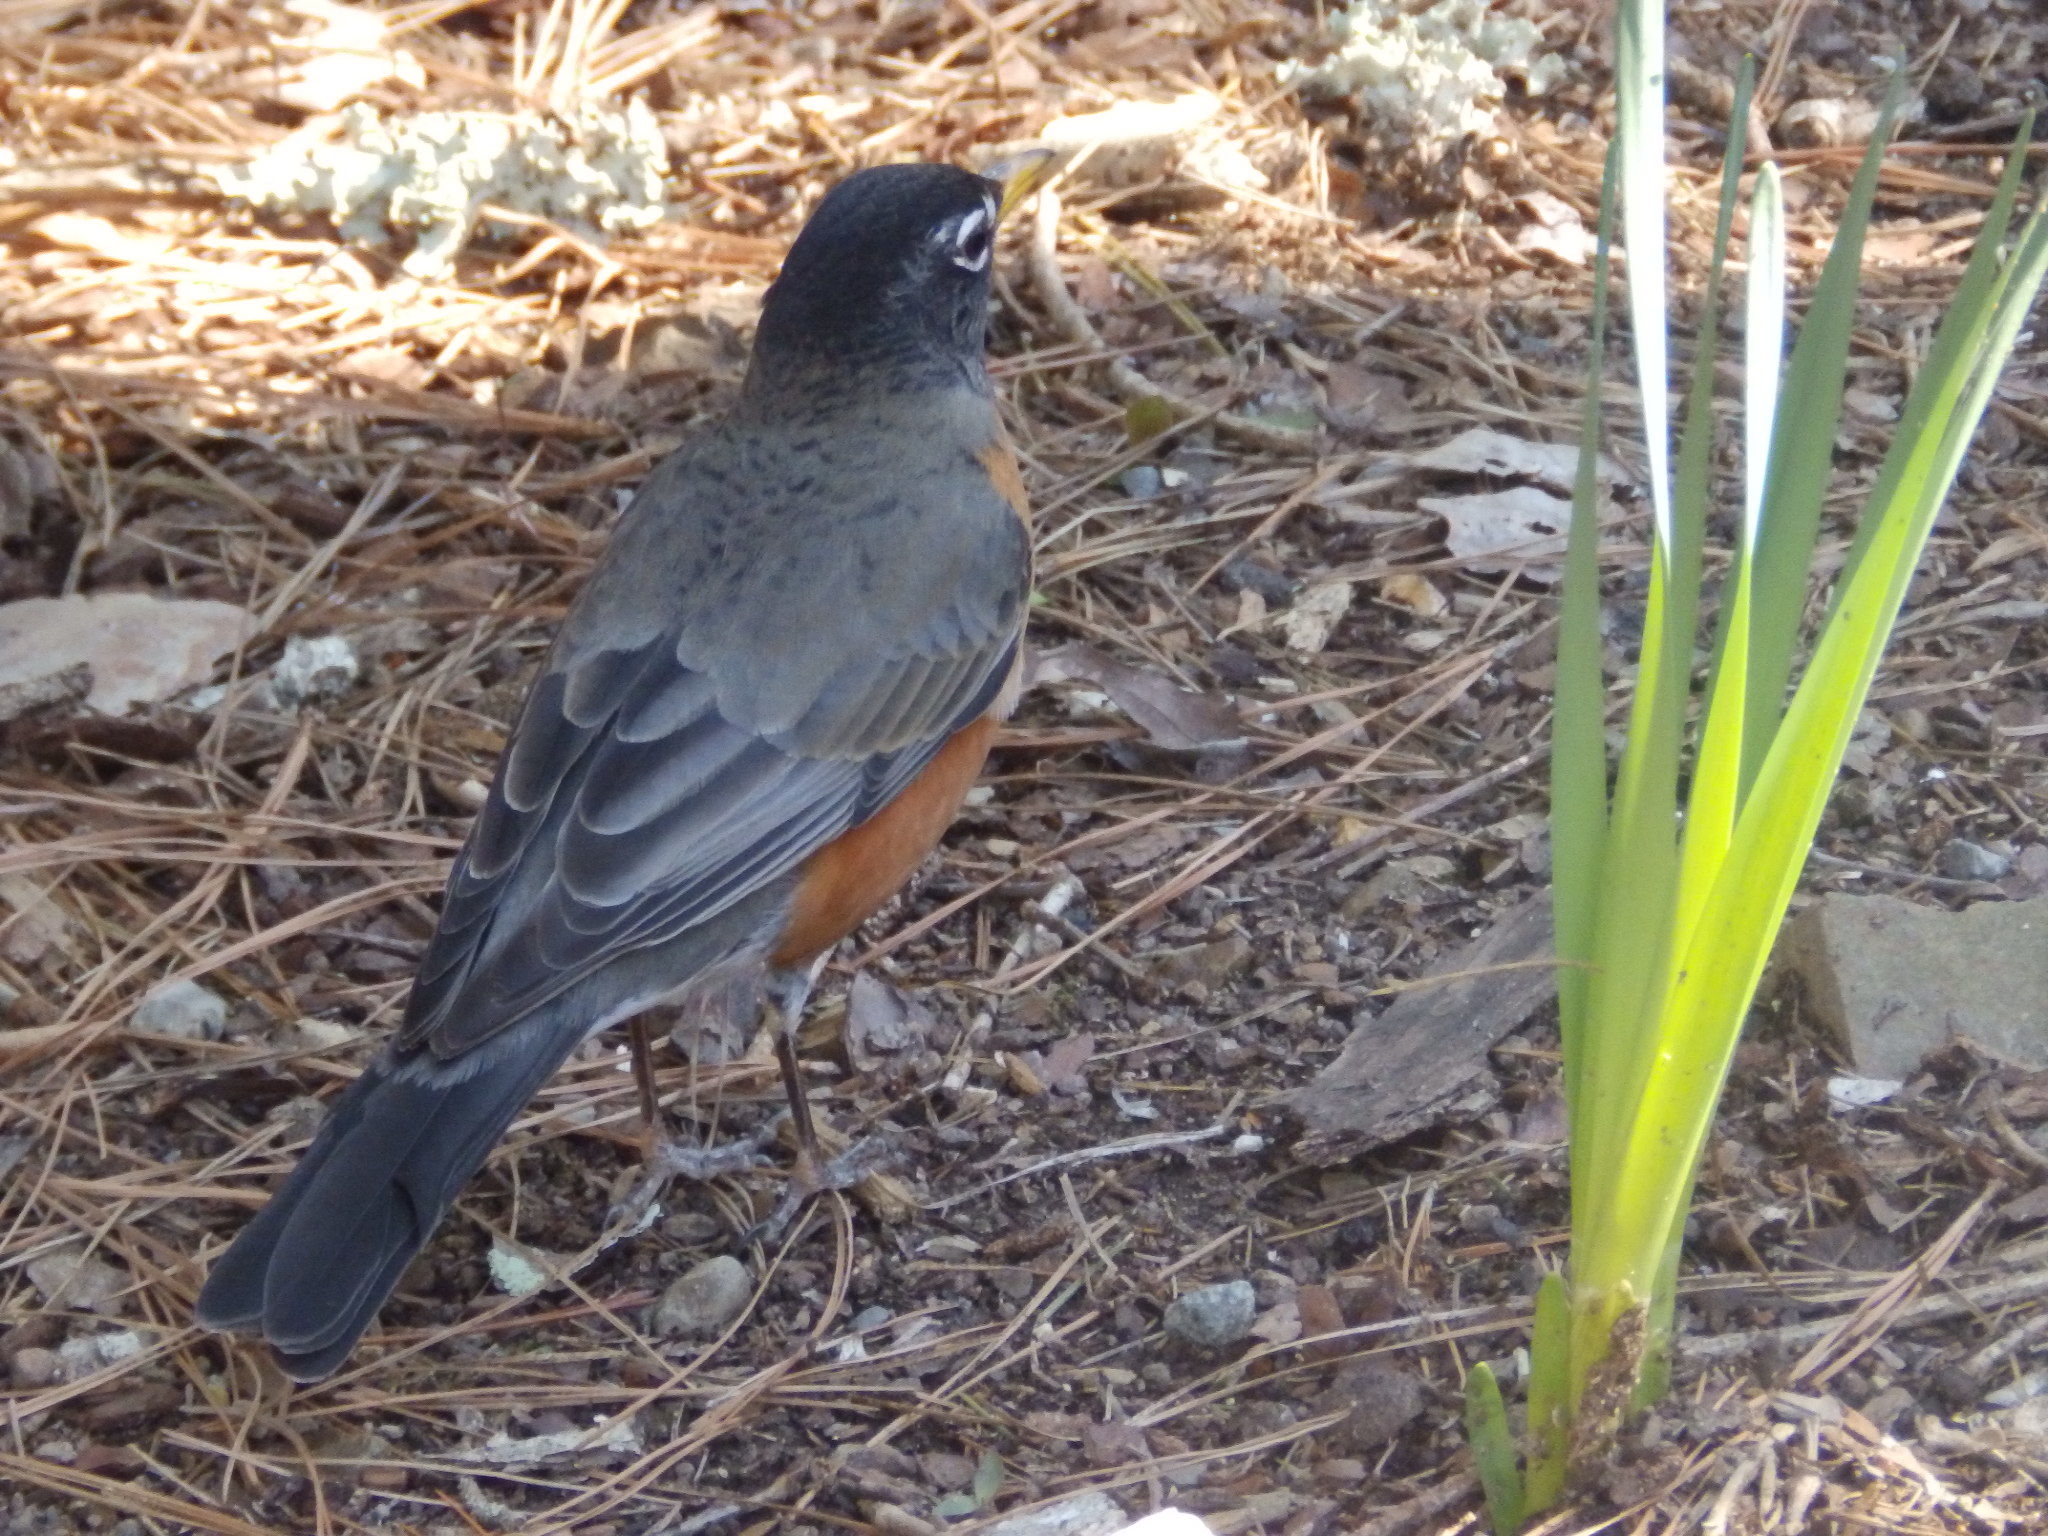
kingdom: Animalia
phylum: Chordata
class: Aves
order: Passeriformes
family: Turdidae
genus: Turdus
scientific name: Turdus migratorius
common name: American robin
